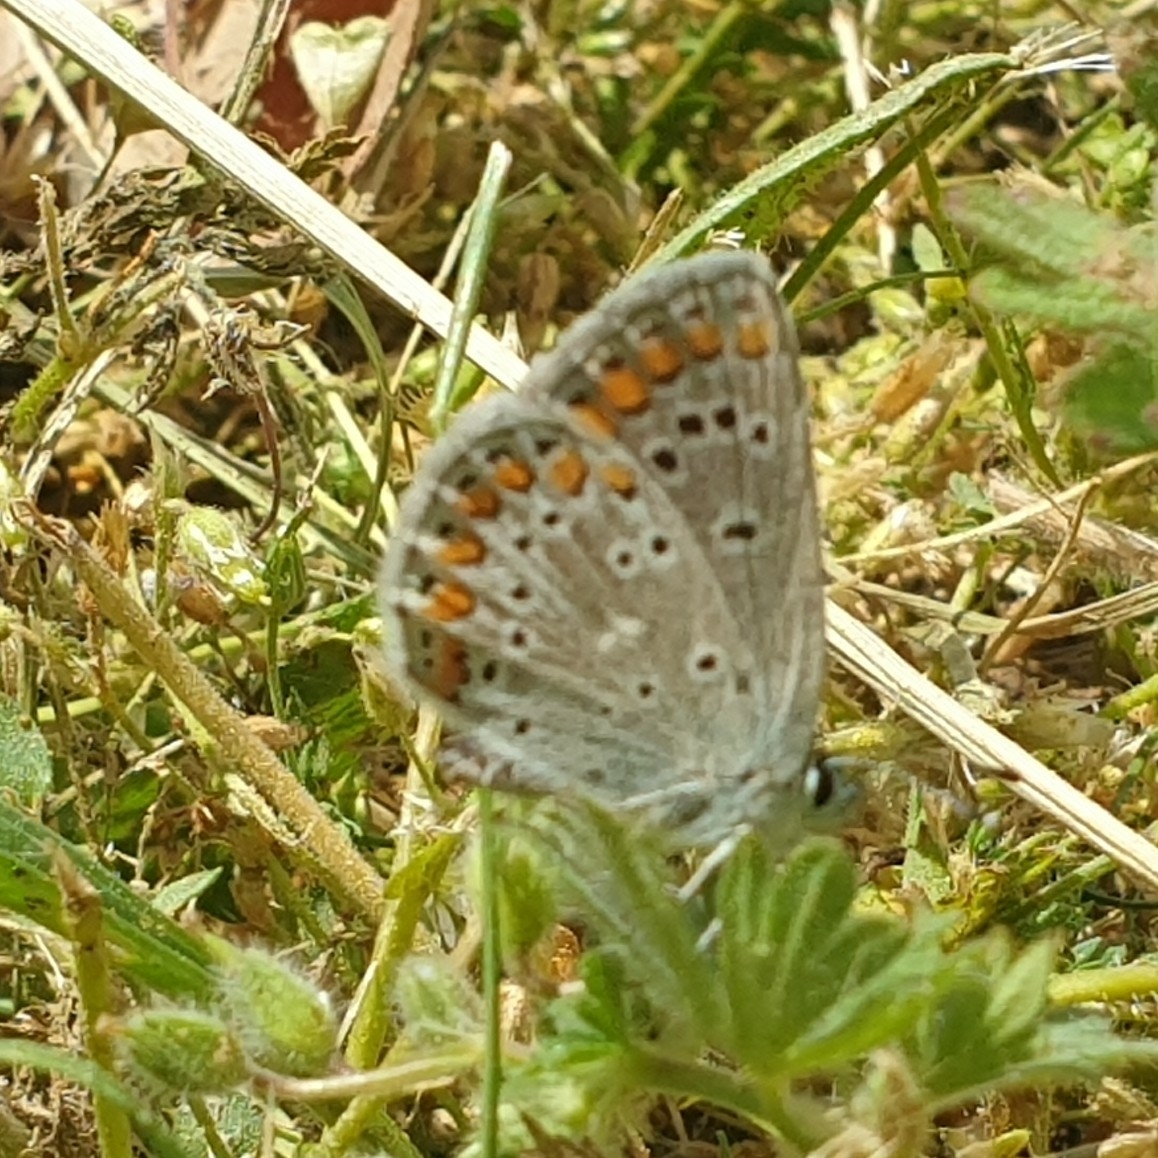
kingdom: Animalia
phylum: Arthropoda
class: Insecta
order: Lepidoptera
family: Lycaenidae
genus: Aricia
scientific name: Aricia agestis
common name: Brown argus
